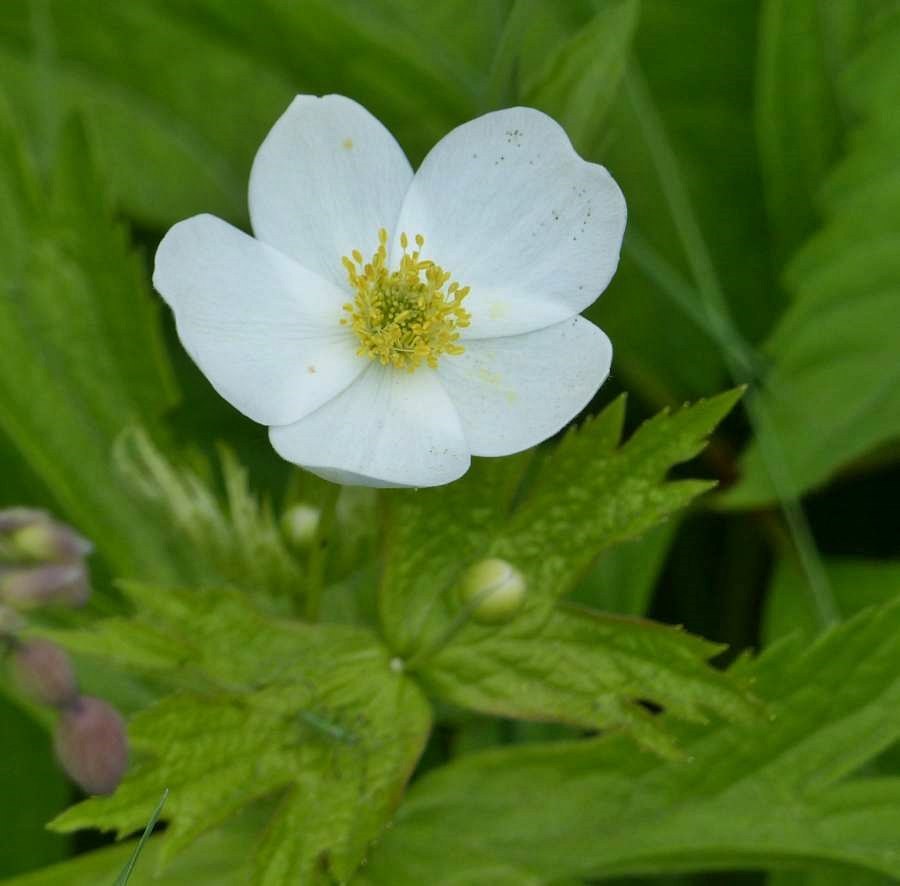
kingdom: Plantae
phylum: Tracheophyta
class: Magnoliopsida
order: Ranunculales
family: Ranunculaceae
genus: Anemonastrum
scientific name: Anemonastrum canadense
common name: Canada anemone
